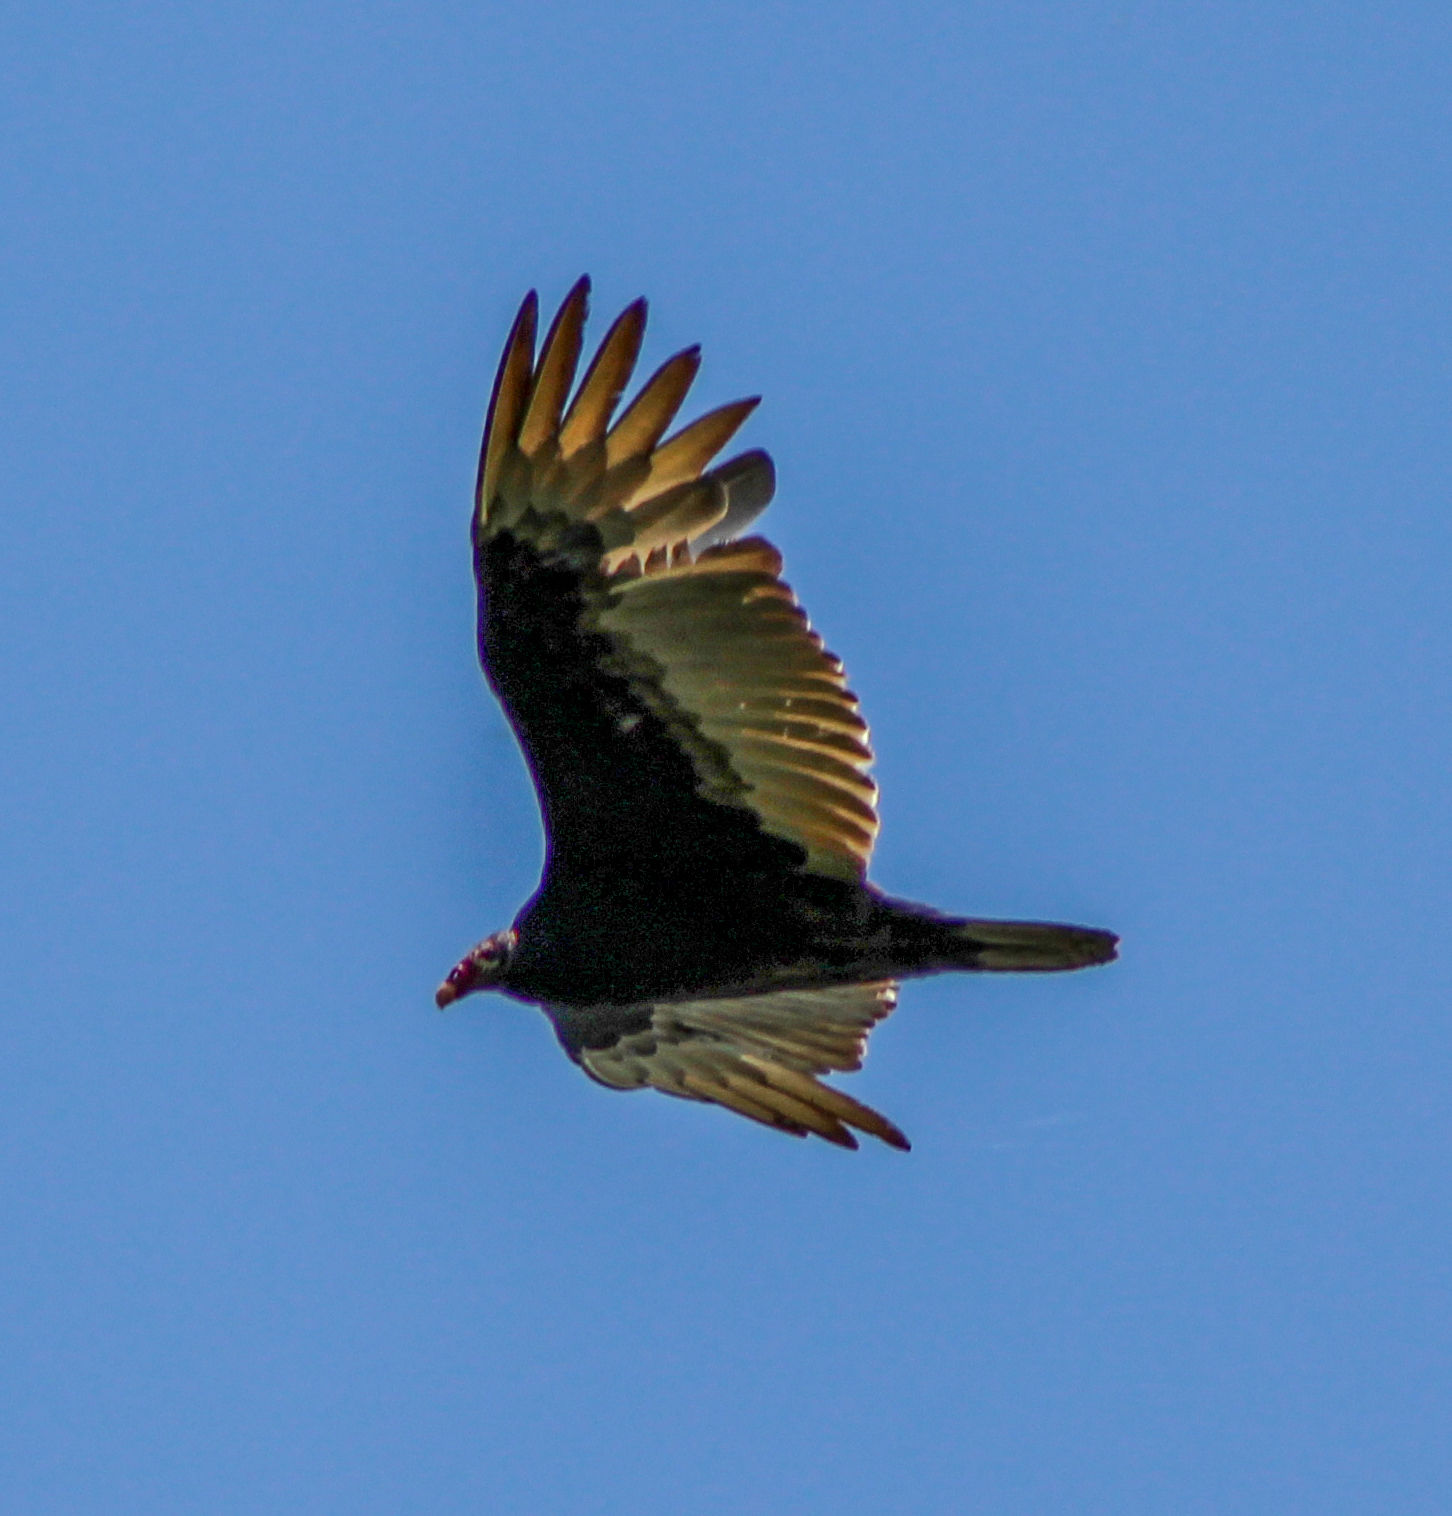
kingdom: Animalia
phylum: Chordata
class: Aves
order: Accipitriformes
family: Cathartidae
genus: Cathartes
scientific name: Cathartes aura
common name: Turkey vulture
